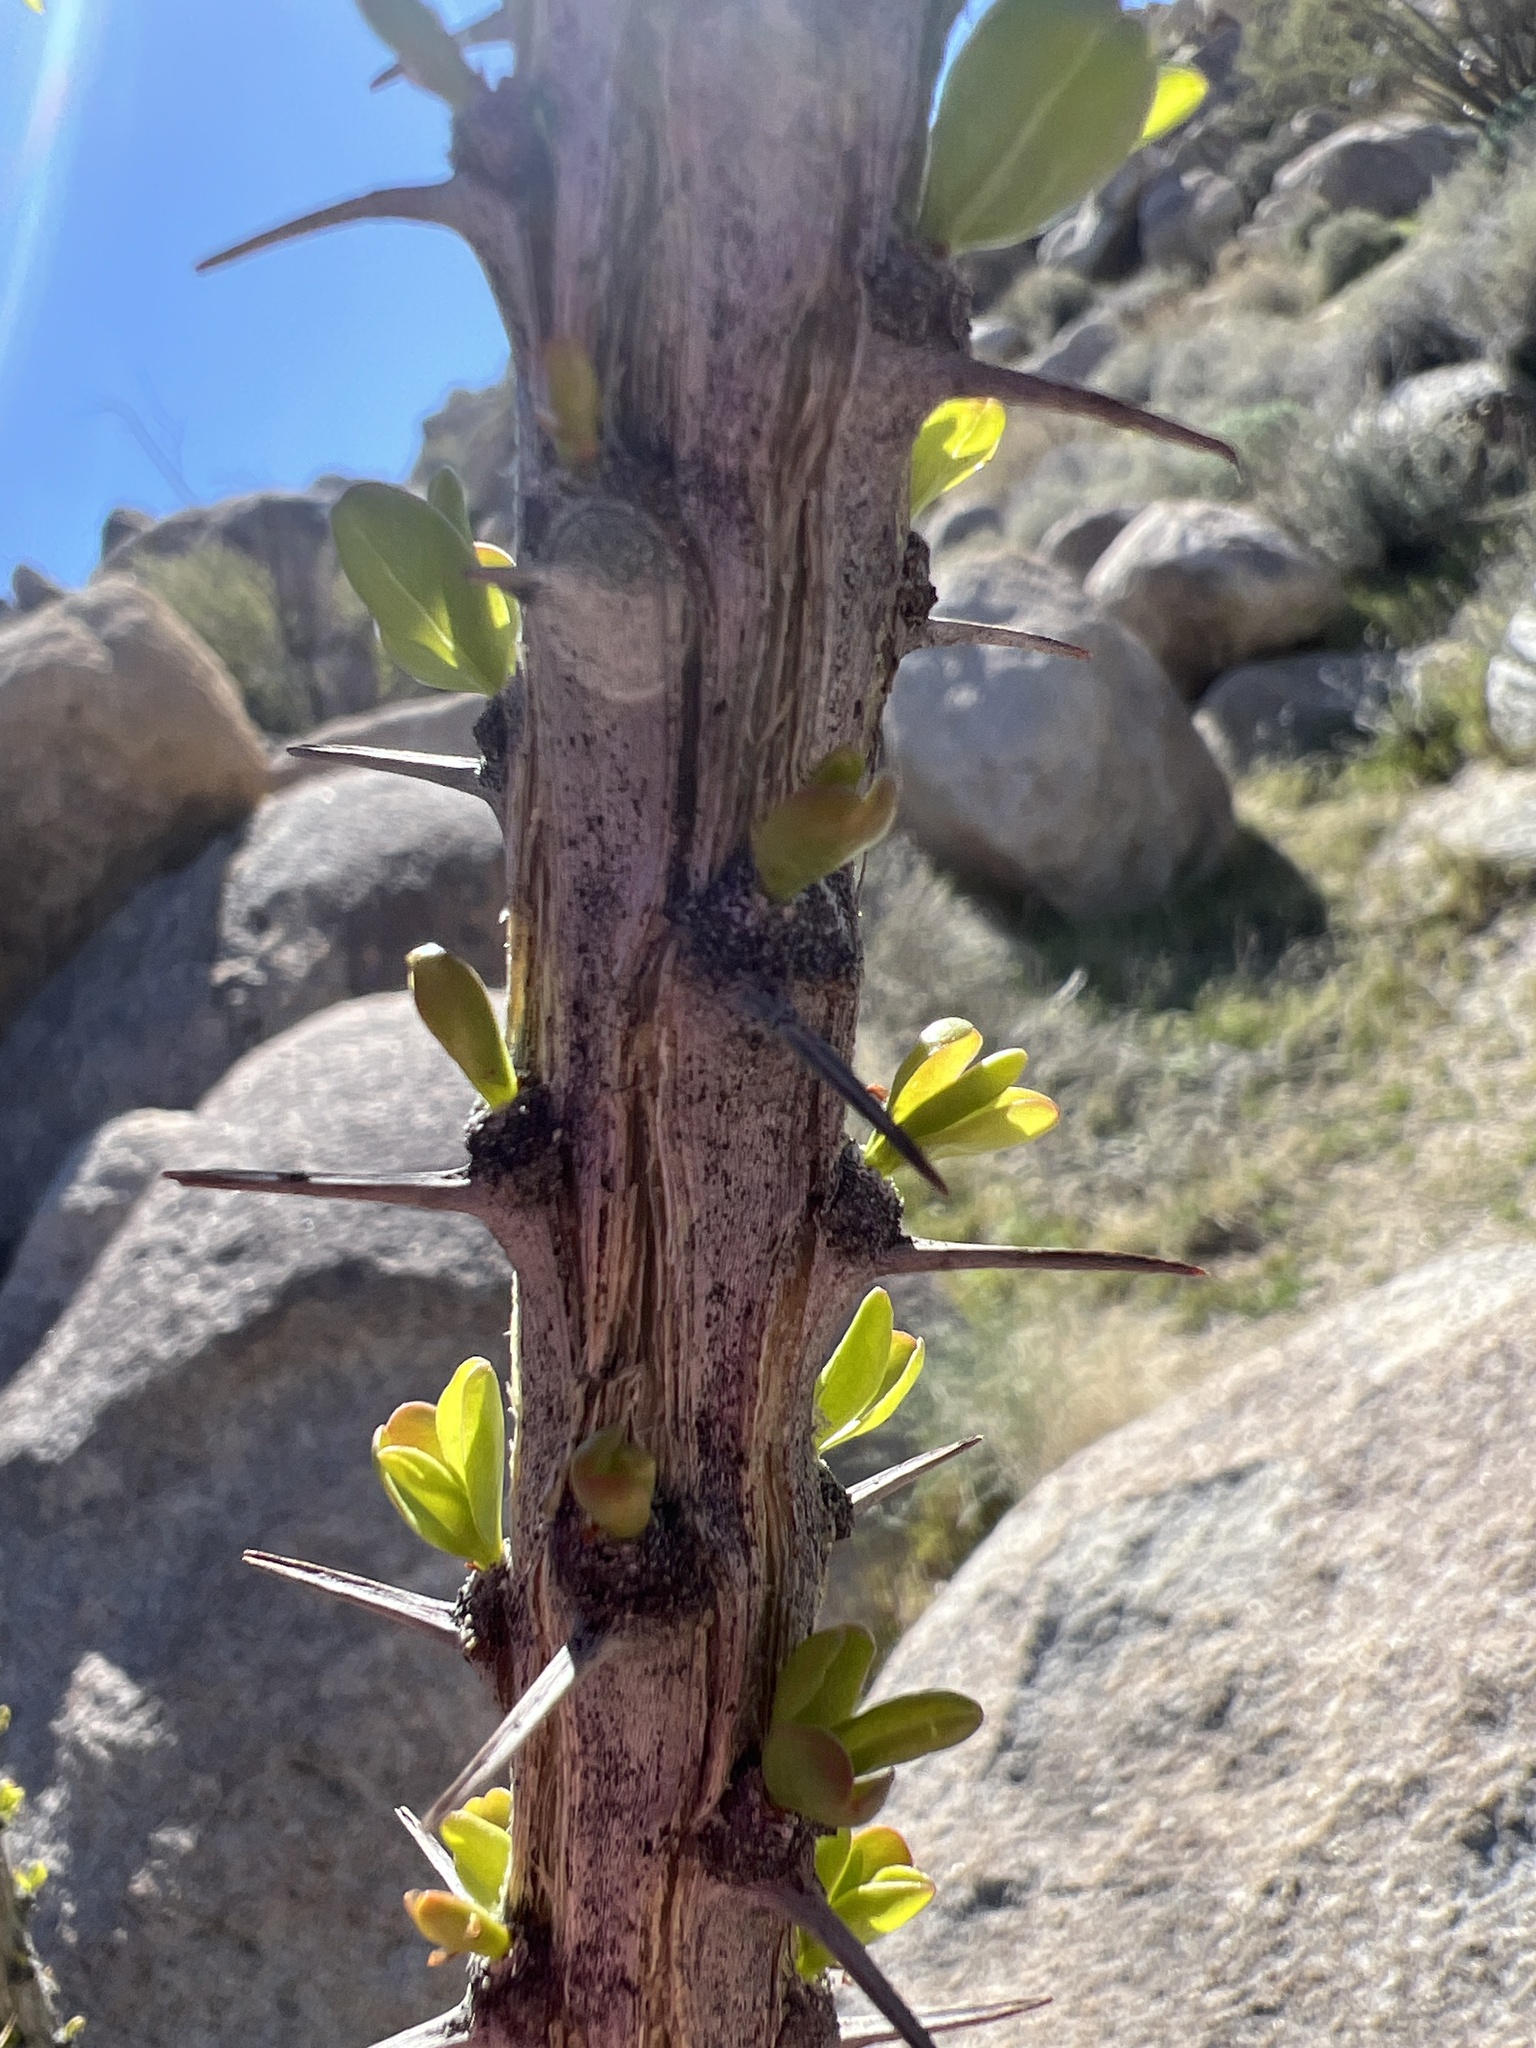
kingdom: Plantae
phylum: Tracheophyta
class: Magnoliopsida
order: Ericales
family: Fouquieriaceae
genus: Fouquieria
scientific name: Fouquieria splendens
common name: Vine-cactus
